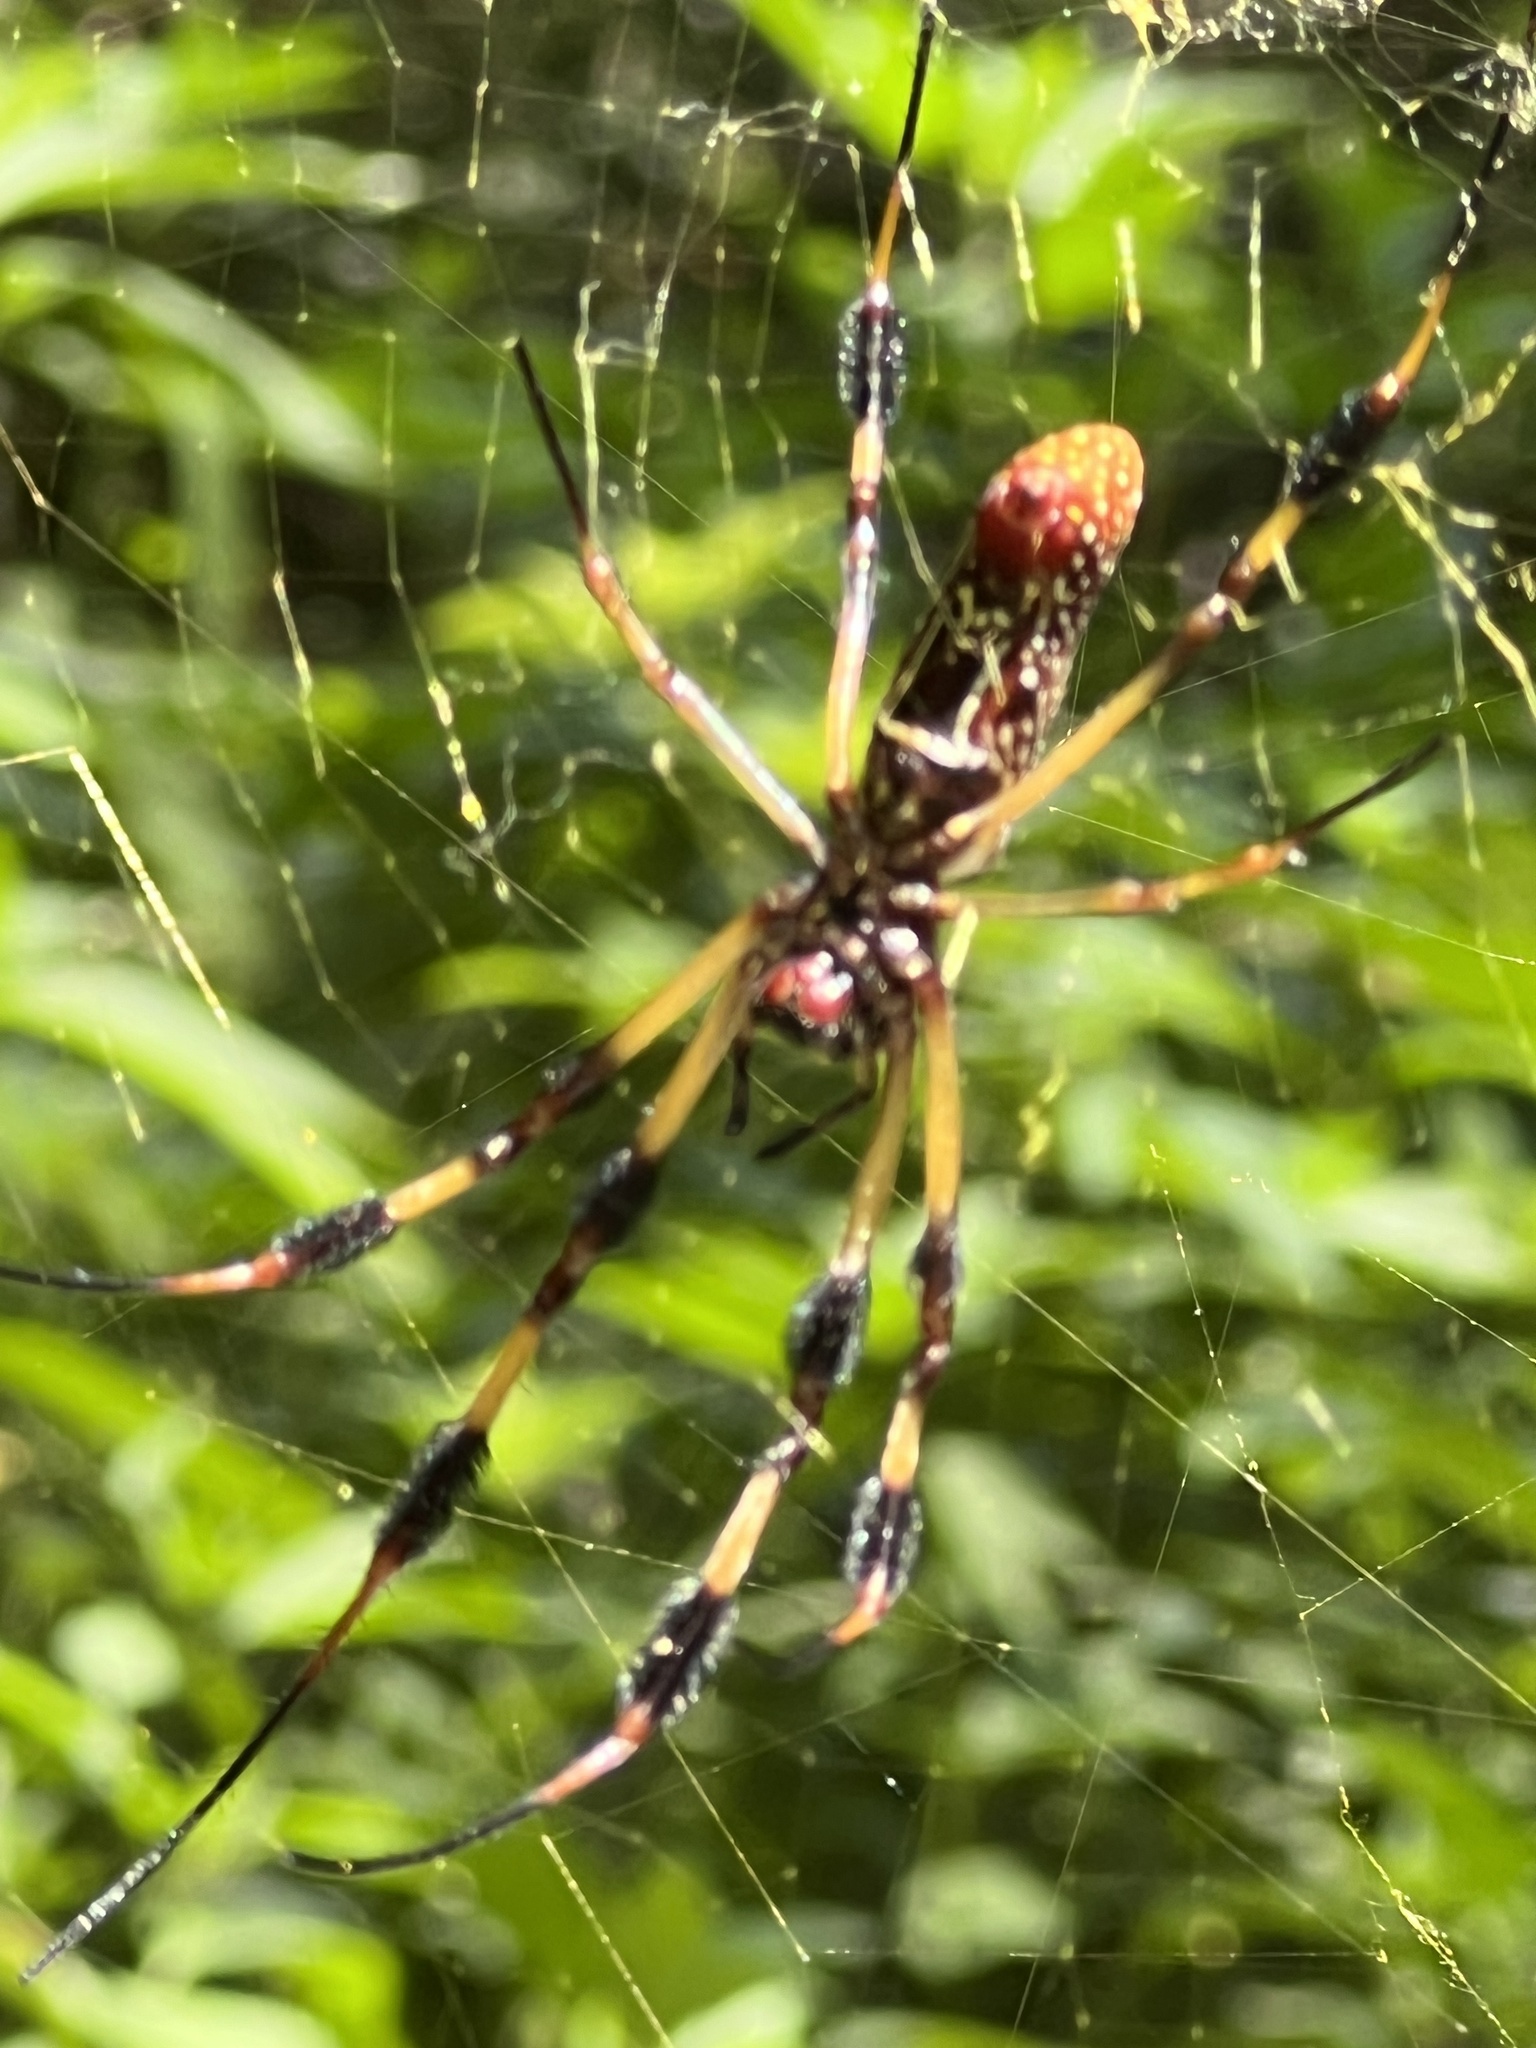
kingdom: Animalia
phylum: Arthropoda
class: Arachnida
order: Araneae
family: Araneidae
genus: Trichonephila
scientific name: Trichonephila clavipes
